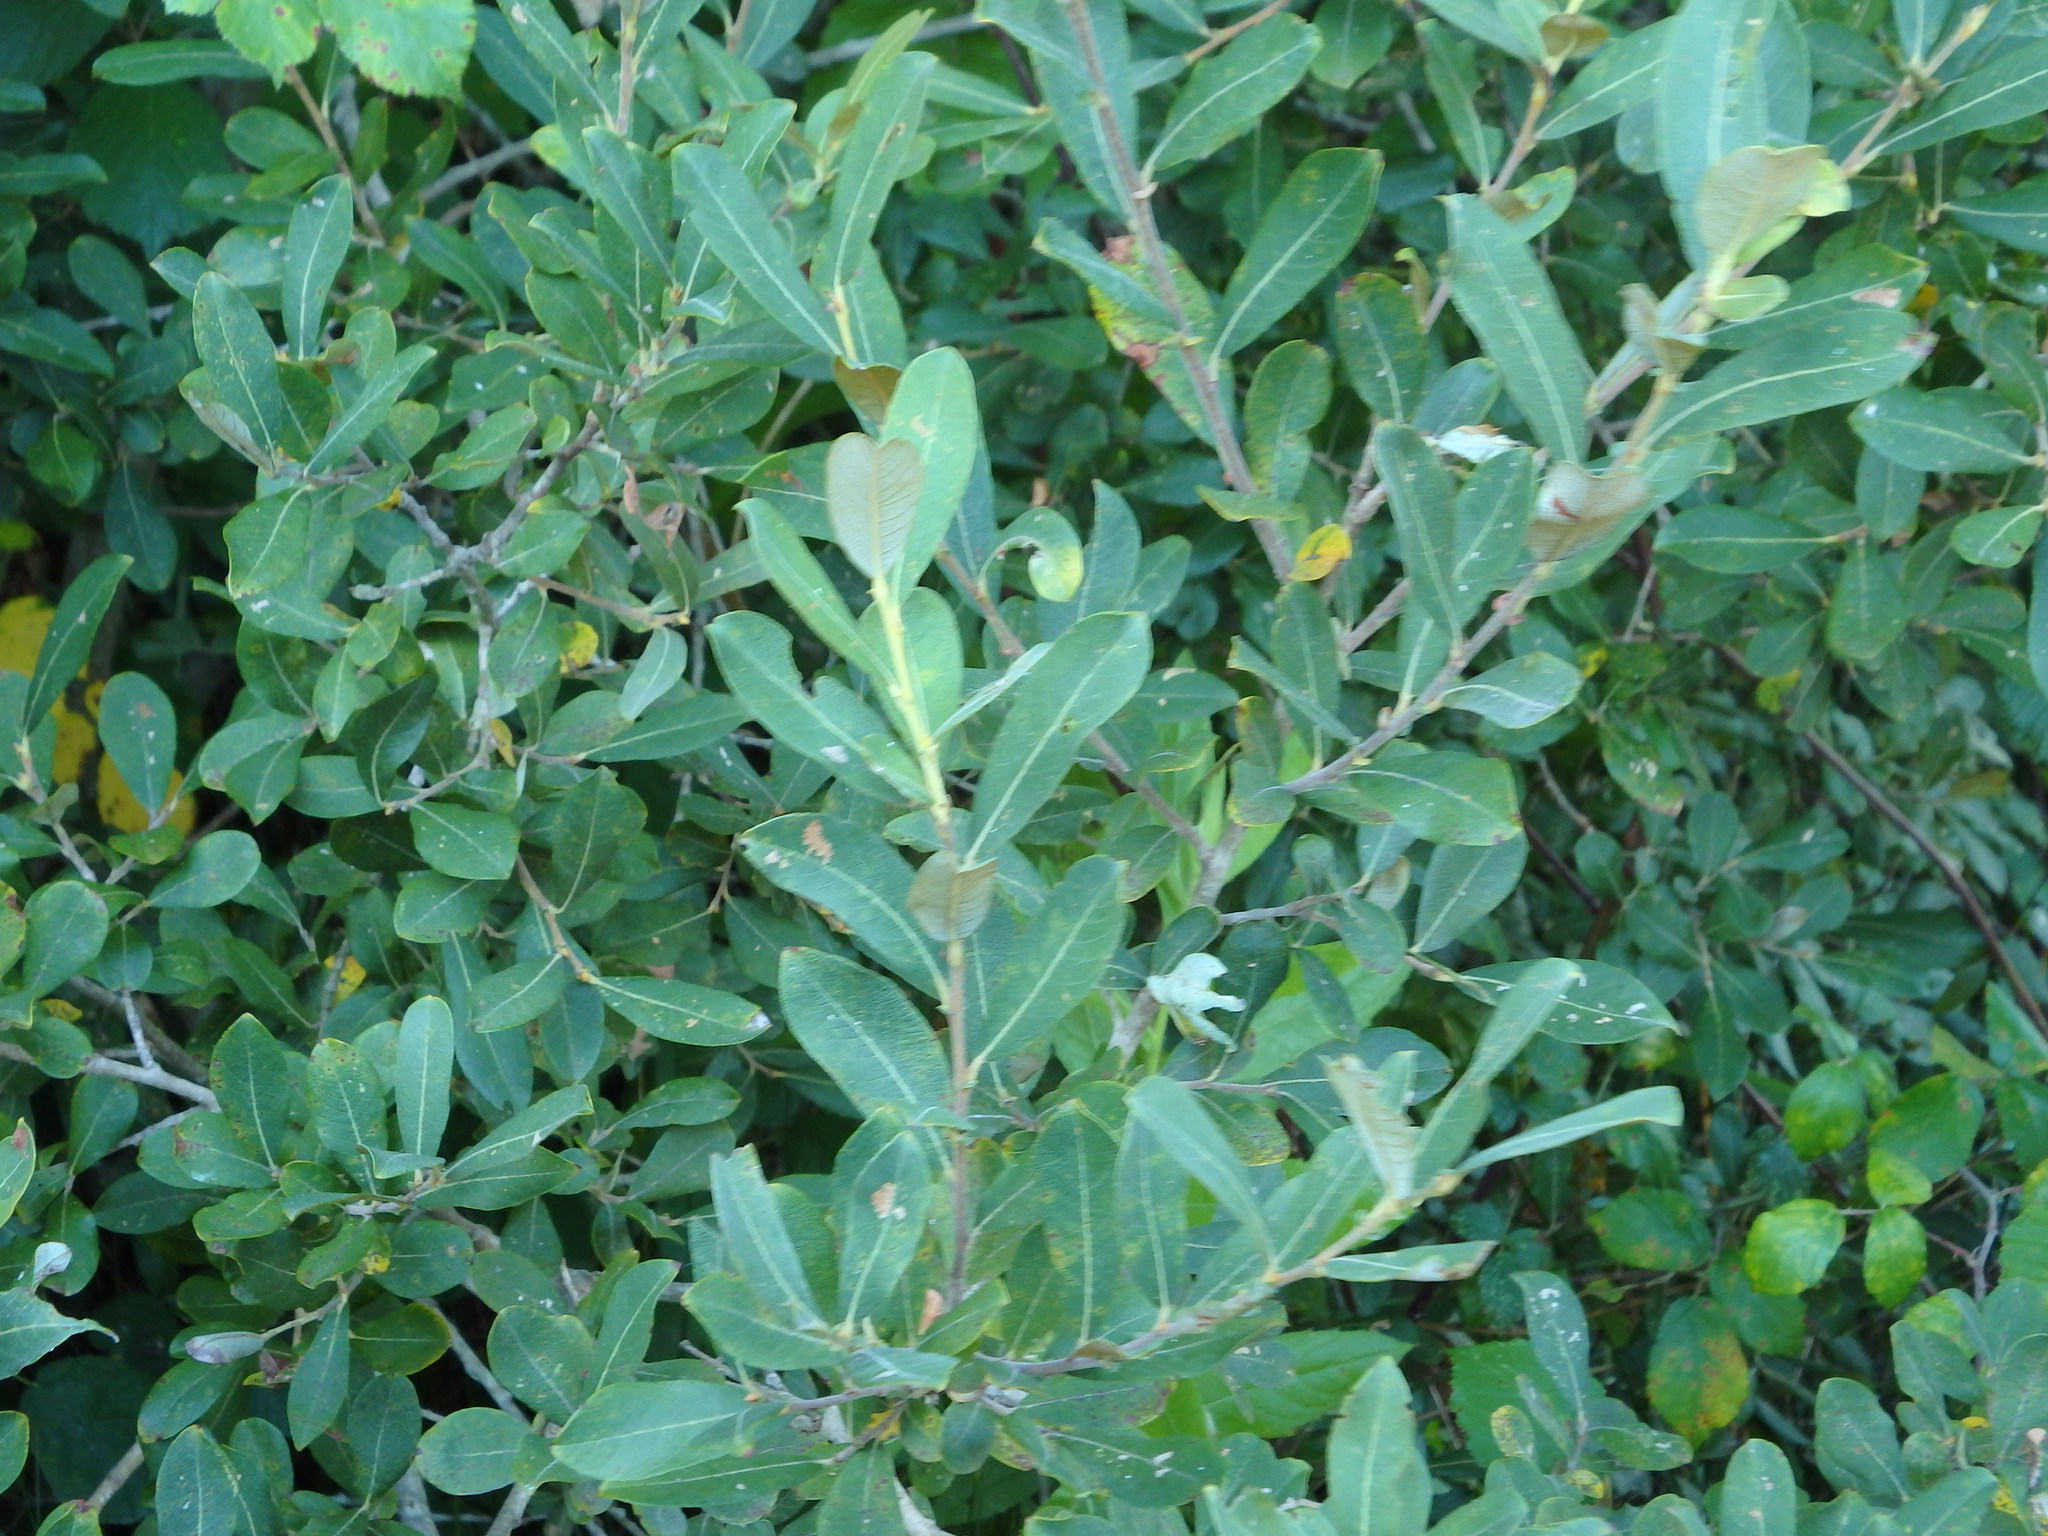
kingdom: Plantae
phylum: Tracheophyta
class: Magnoliopsida
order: Malpighiales
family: Salicaceae
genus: Salix
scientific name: Salix atrocinerea
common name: Rusty willow
